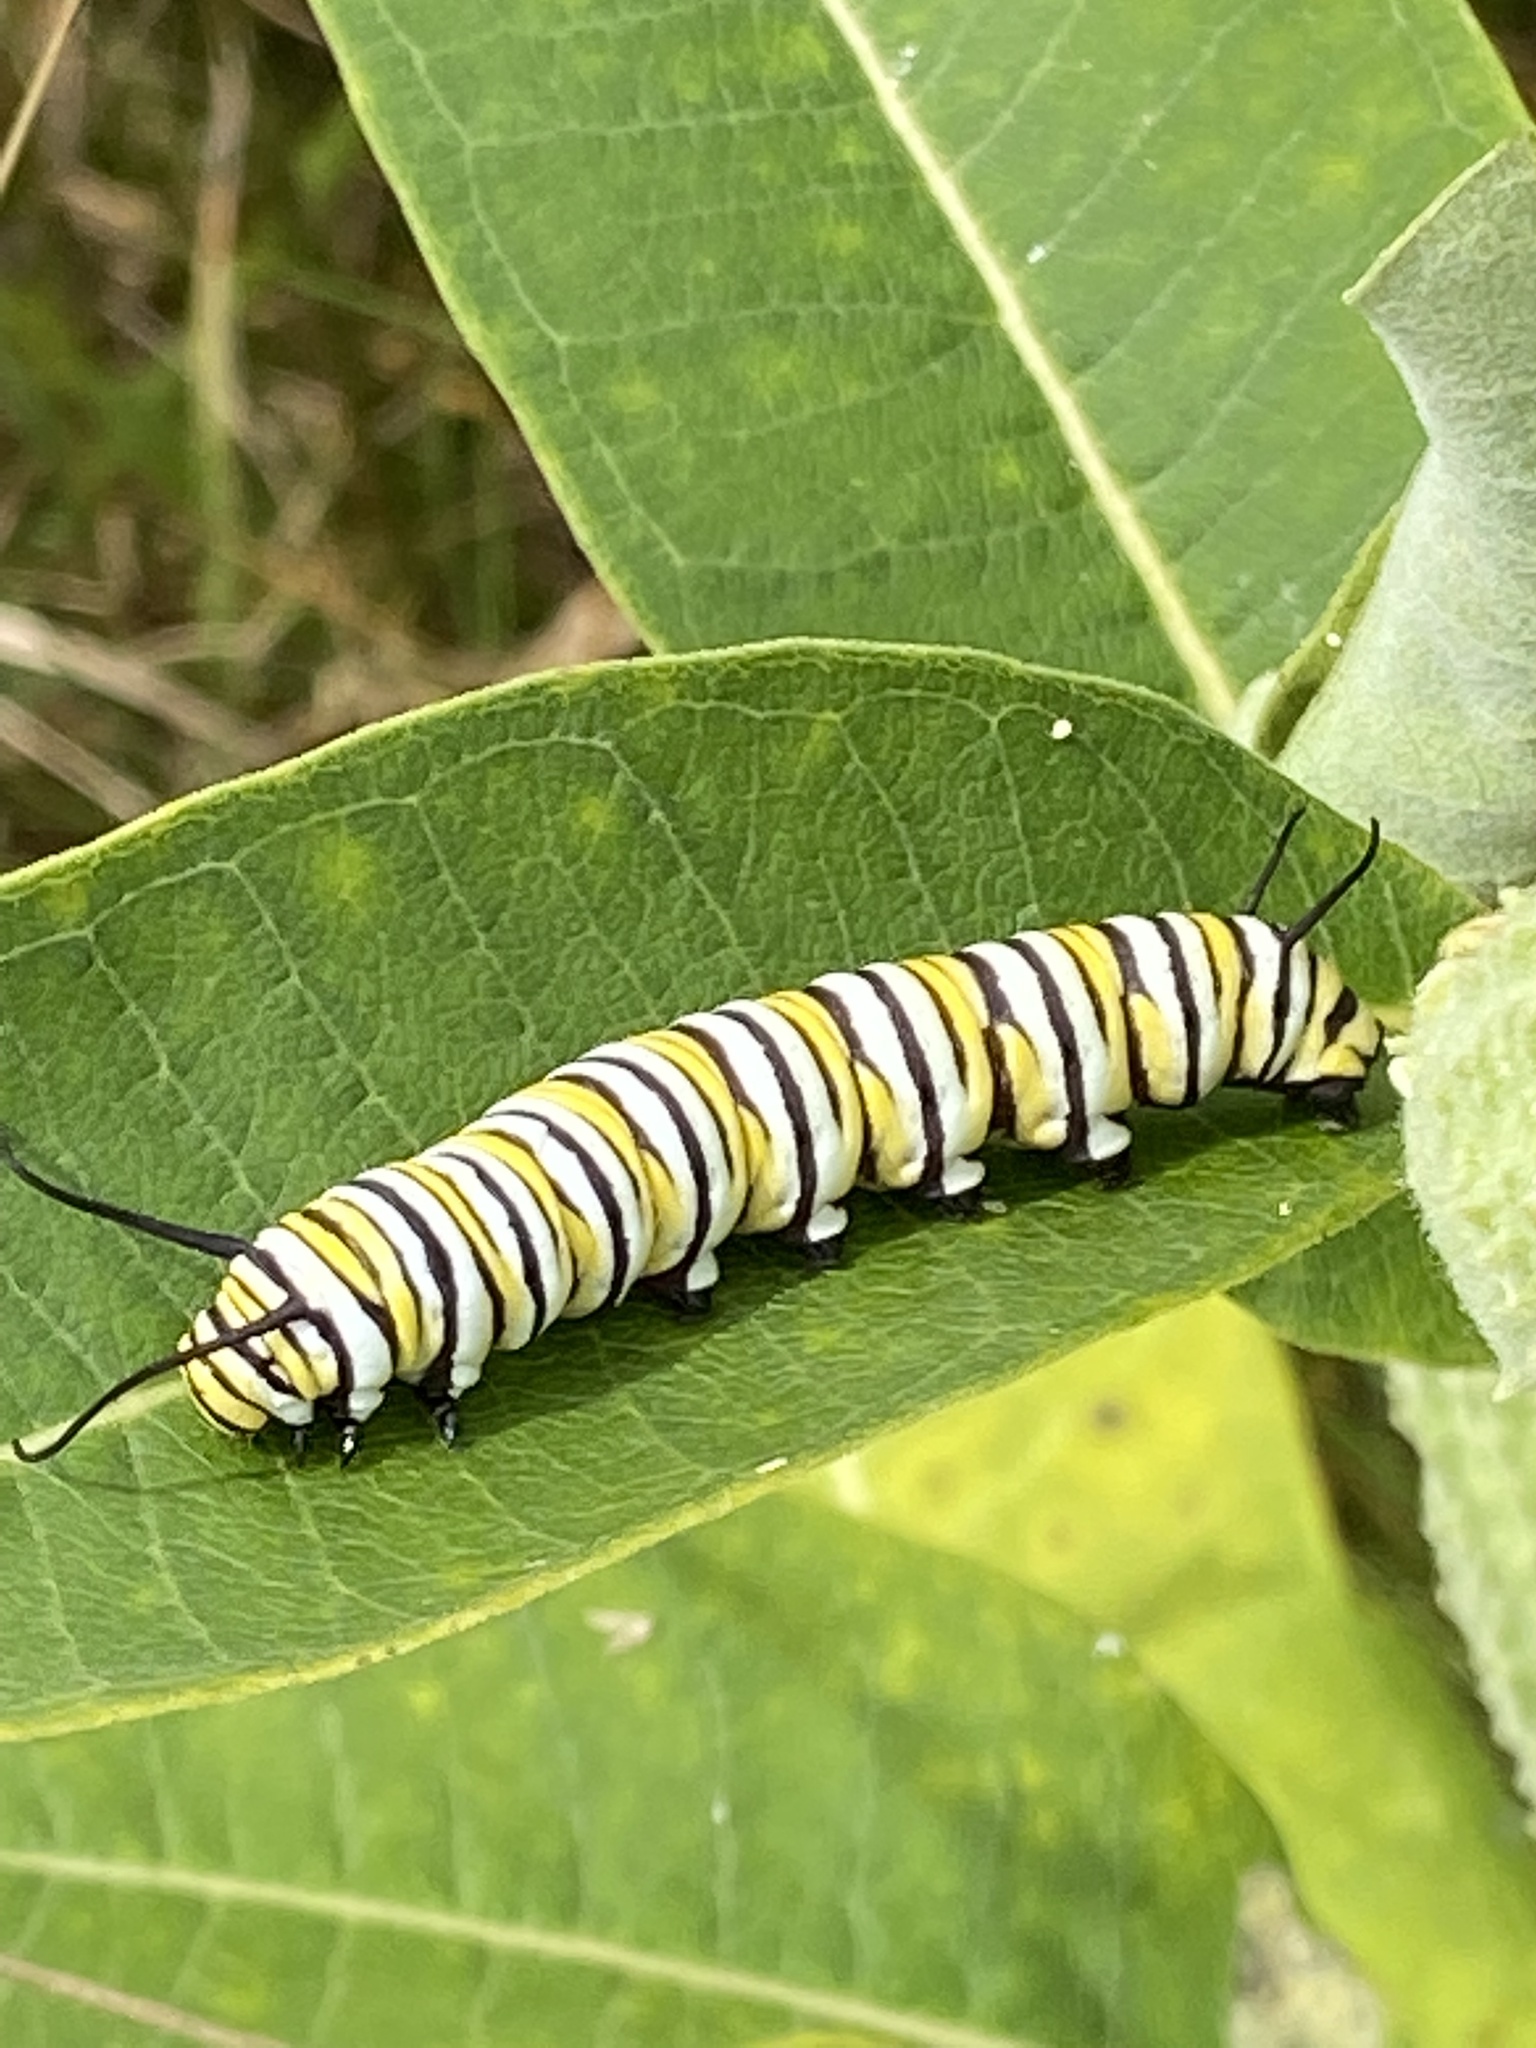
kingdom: Animalia
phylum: Arthropoda
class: Insecta
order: Lepidoptera
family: Nymphalidae
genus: Danaus
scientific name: Danaus plexippus
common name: Monarch
